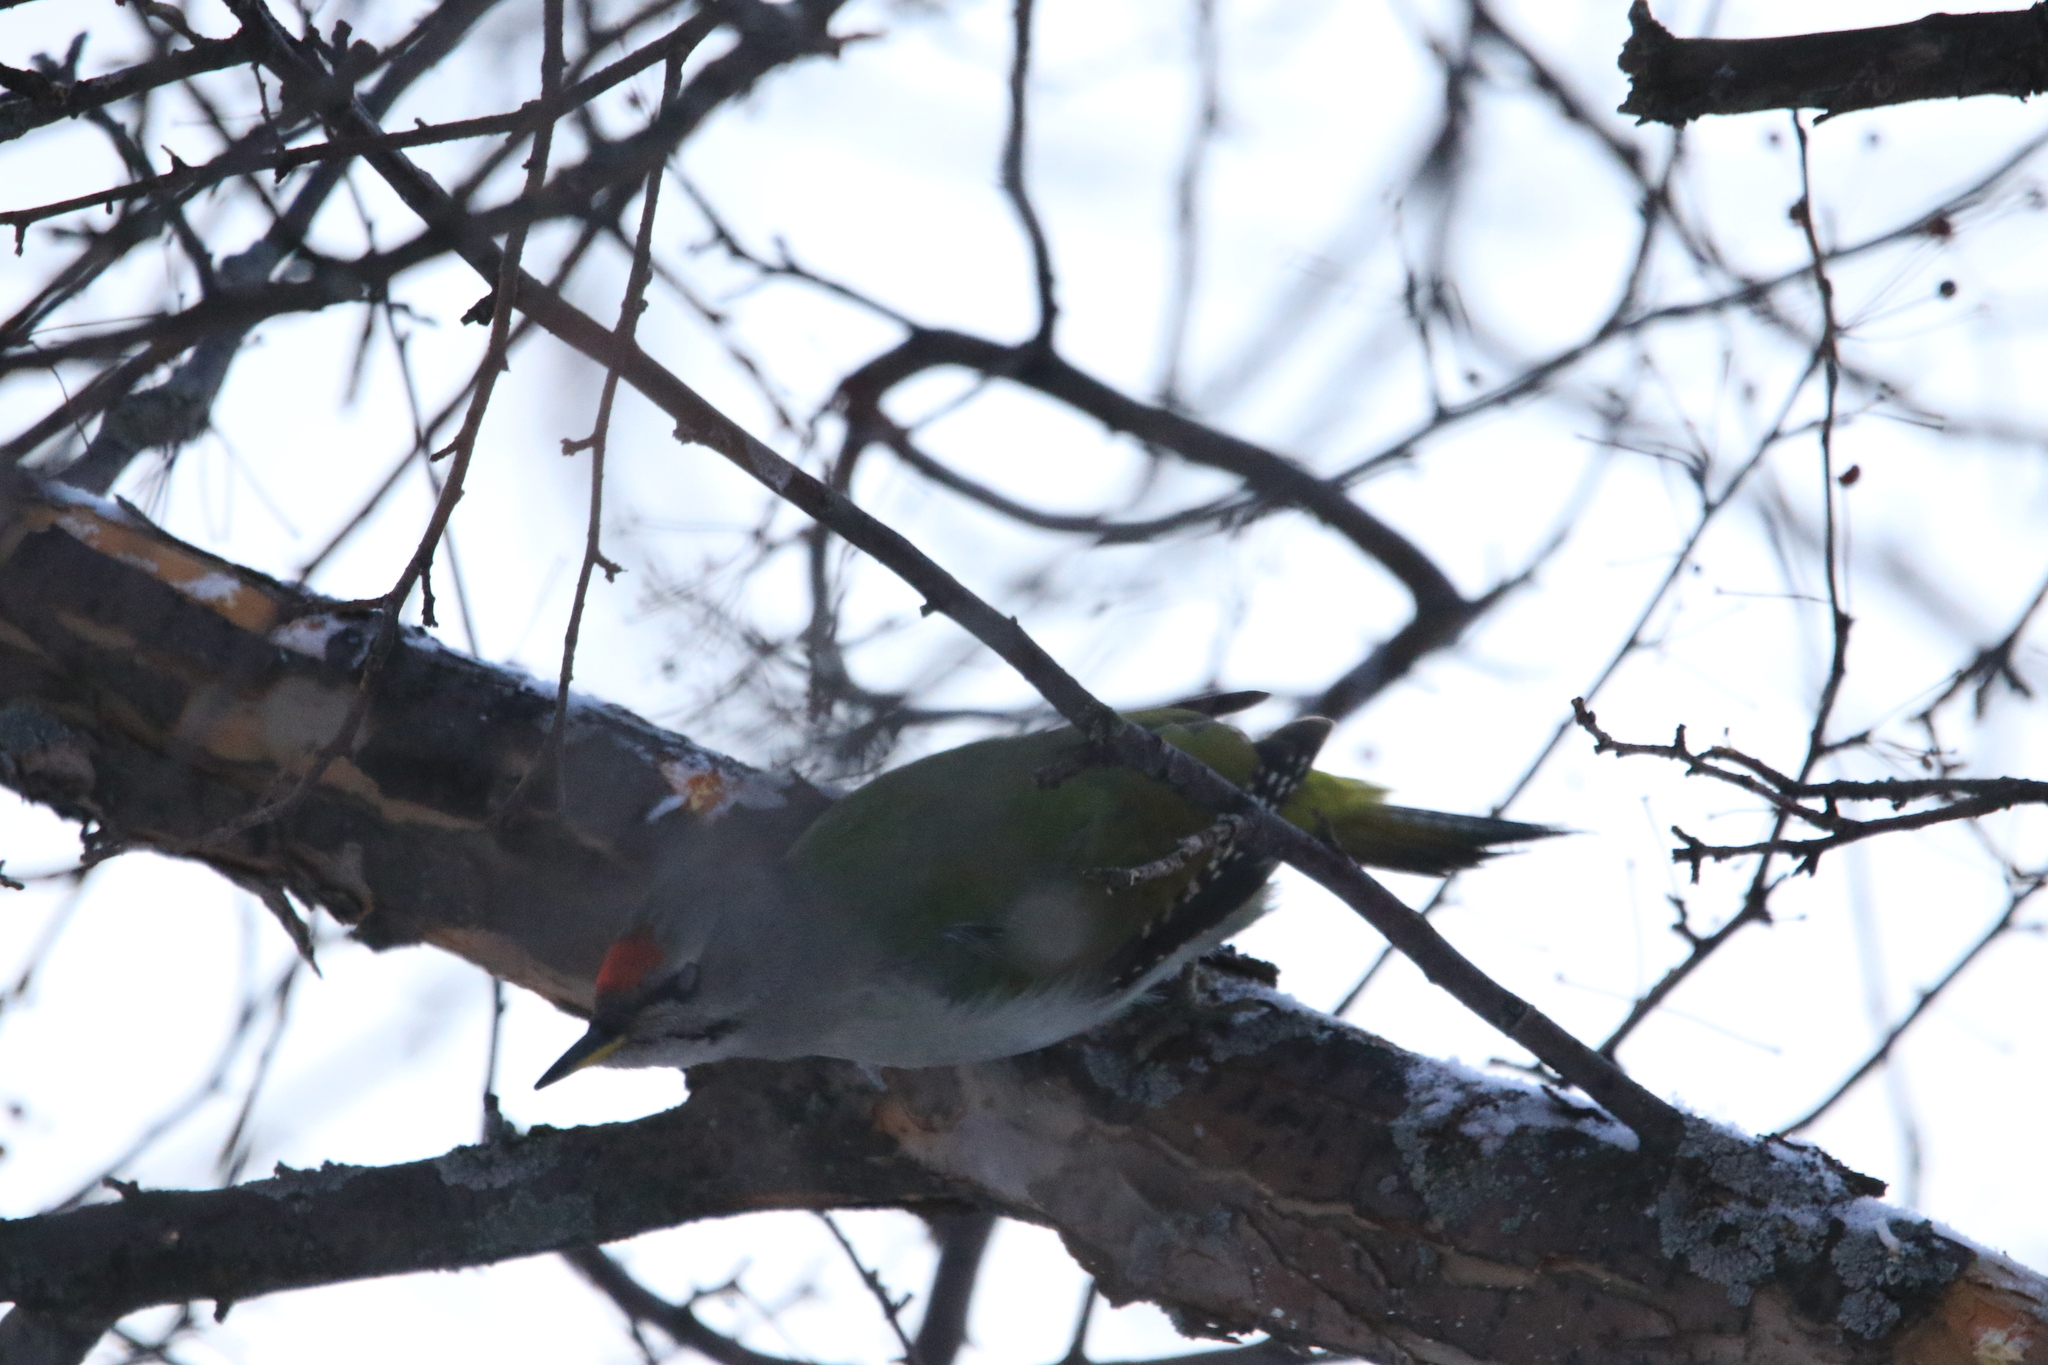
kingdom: Animalia
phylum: Chordata
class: Aves
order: Piciformes
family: Picidae
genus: Picus
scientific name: Picus canus
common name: Grey-headed woodpecker
